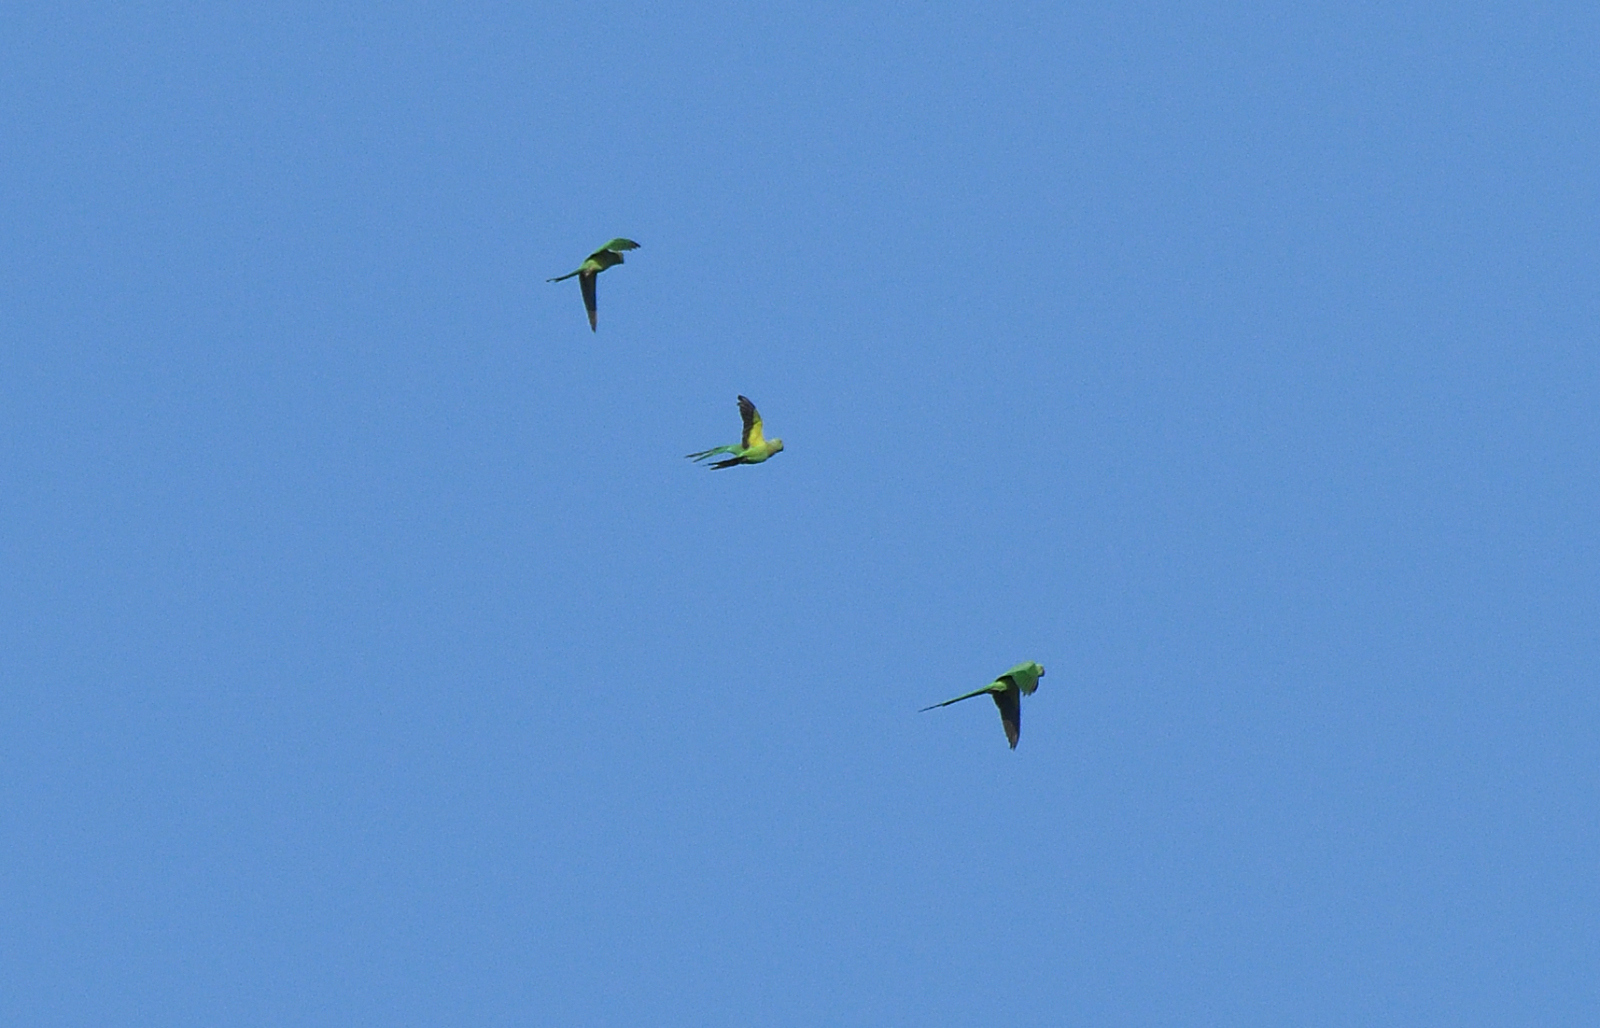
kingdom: Animalia
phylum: Chordata
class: Aves
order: Psittaciformes
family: Psittacidae
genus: Psittacula
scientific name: Psittacula krameri
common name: Rose-ringed parakeet
